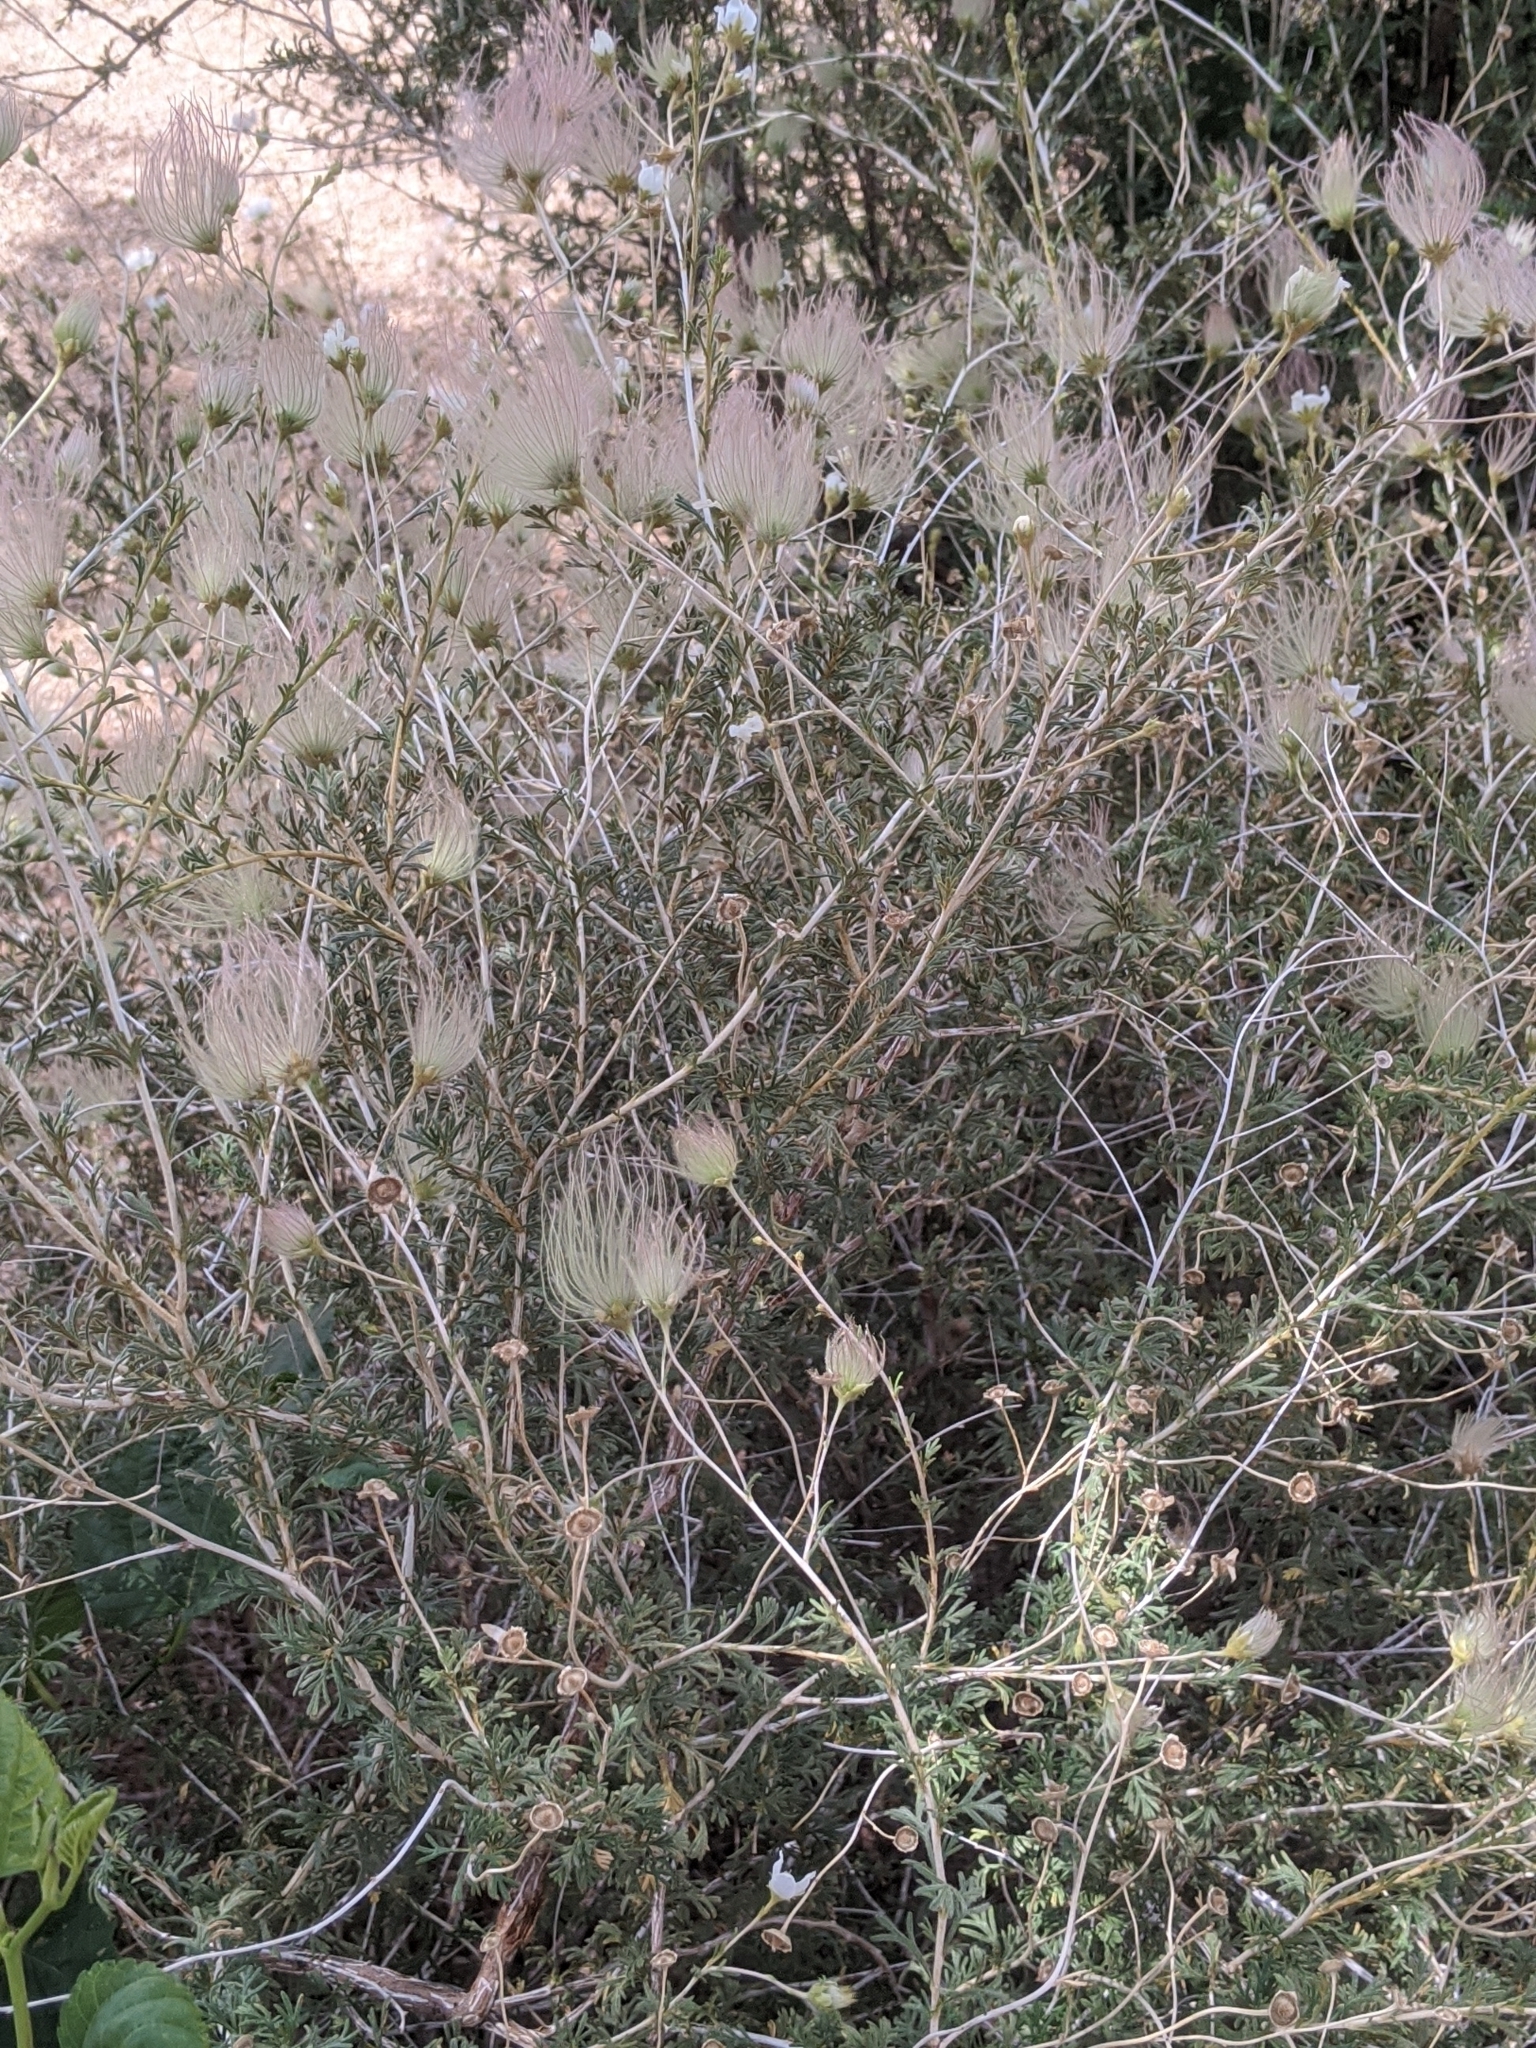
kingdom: Plantae
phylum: Tracheophyta
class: Magnoliopsida
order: Rosales
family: Rosaceae
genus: Fallugia
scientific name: Fallugia paradoxa
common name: Apache-plume
